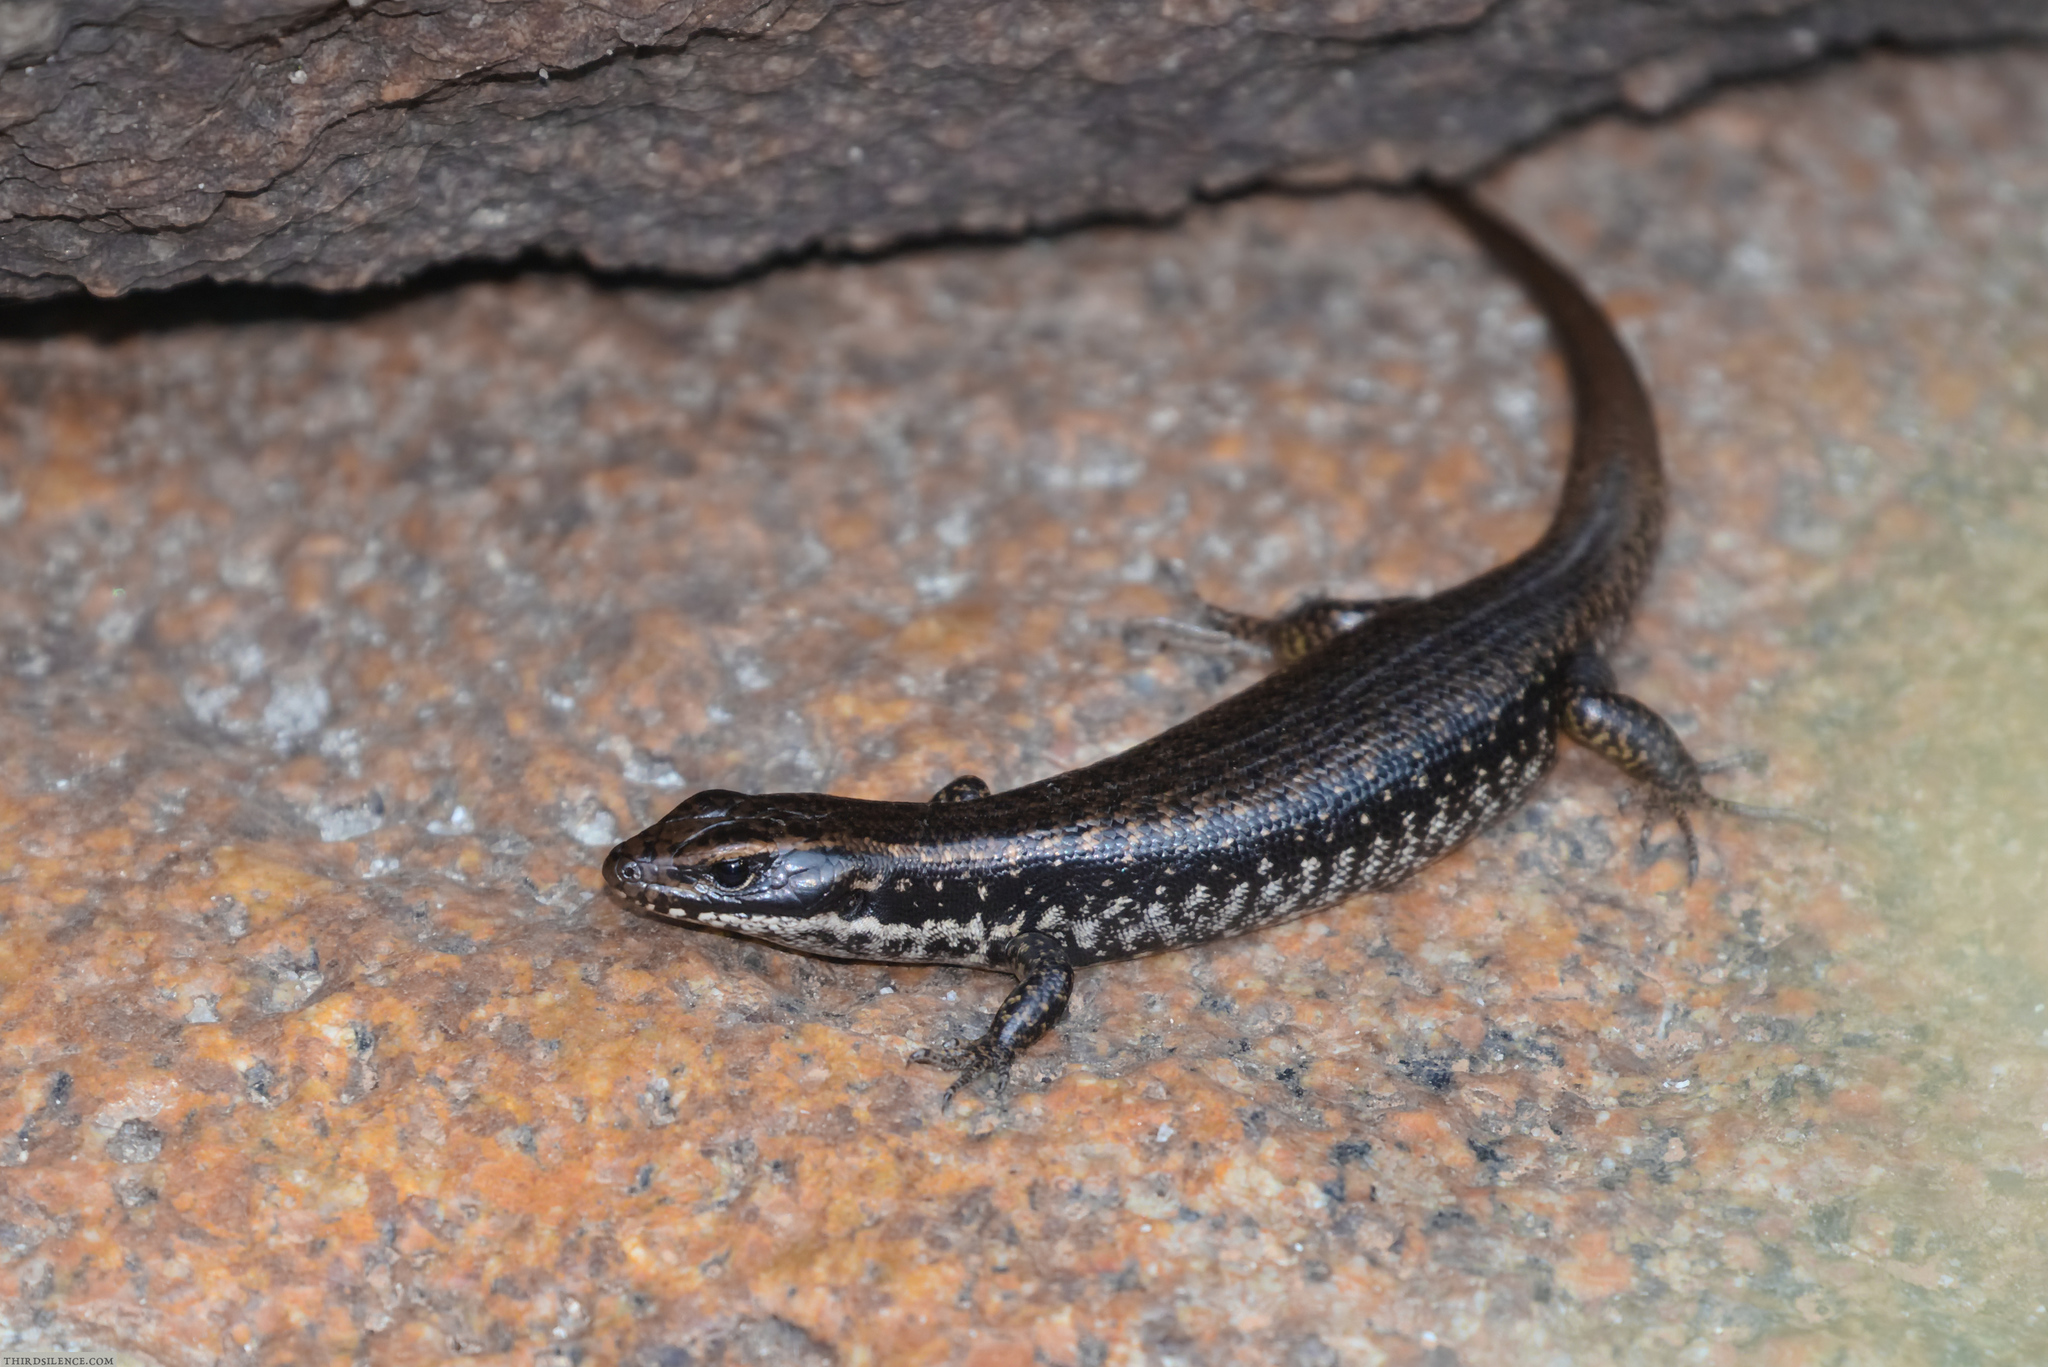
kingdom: Animalia
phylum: Chordata
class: Squamata
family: Scincidae
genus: Eulamprus
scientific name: Eulamprus heatwolei
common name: Warm-temperate water-skink
